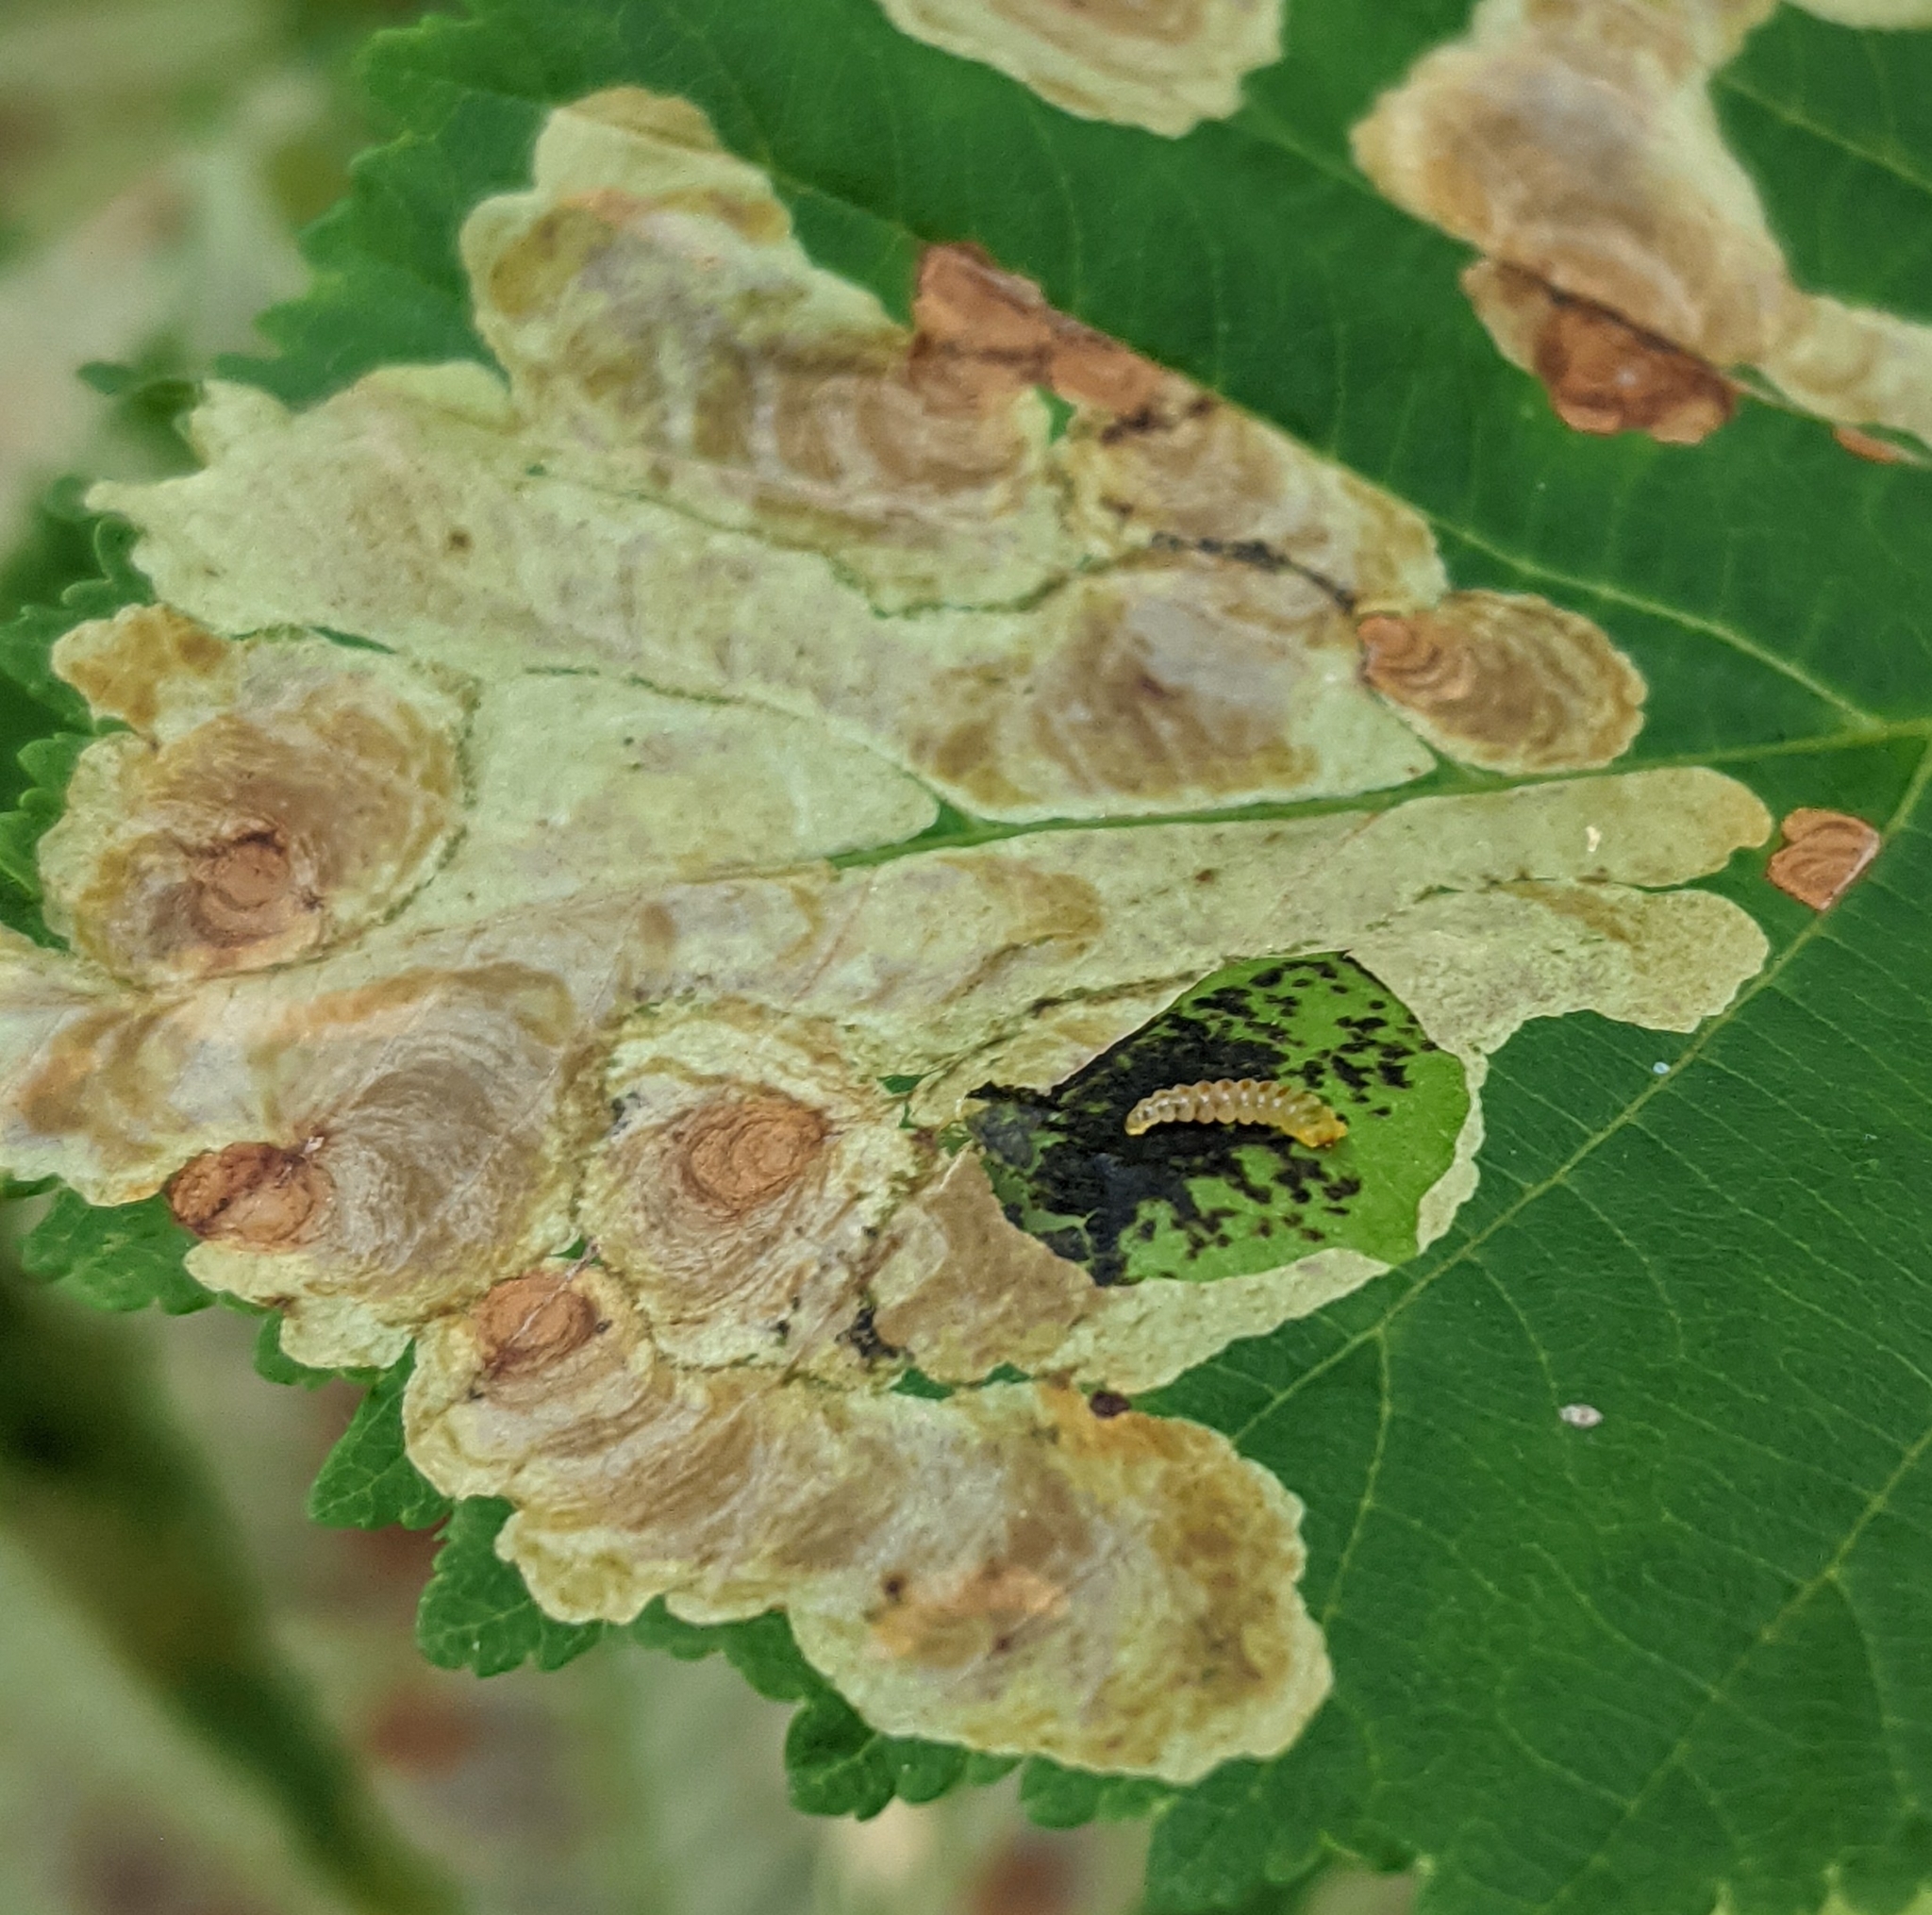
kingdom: Animalia
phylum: Arthropoda
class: Insecta
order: Lepidoptera
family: Gracillariidae
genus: Cameraria
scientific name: Cameraria ohridella
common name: Horse-chestnut leaf-miner
